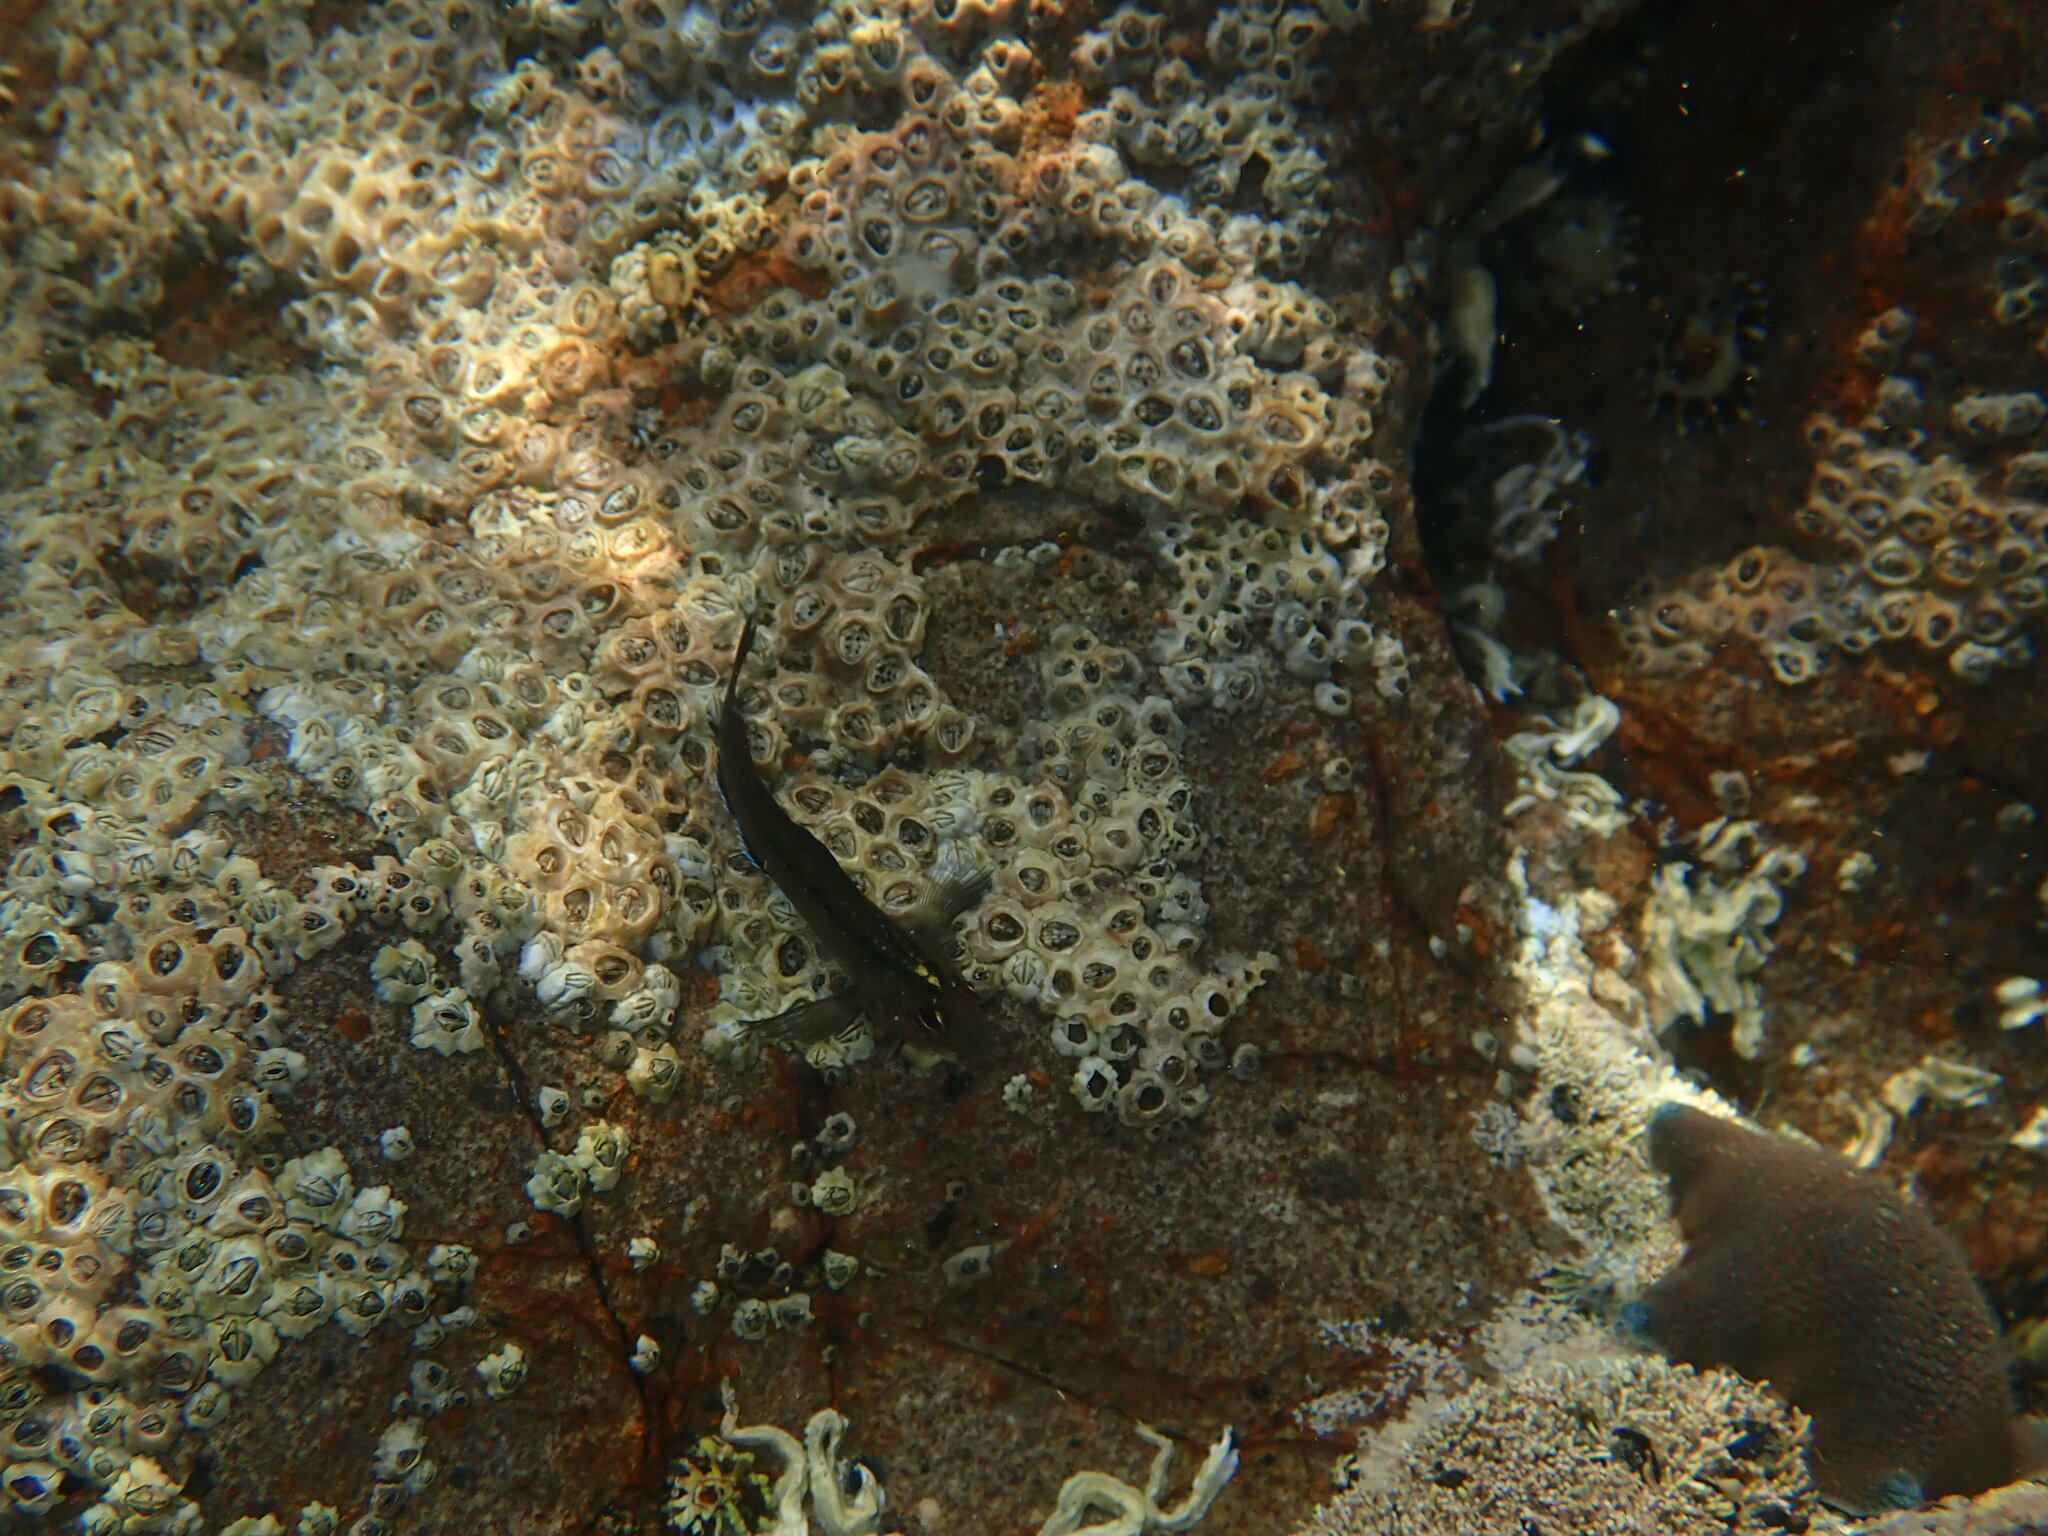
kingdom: Animalia
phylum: Chordata
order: Perciformes
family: Tripterygiidae
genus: Forsterygion
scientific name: Forsterygion lapillum
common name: Common triplefin
